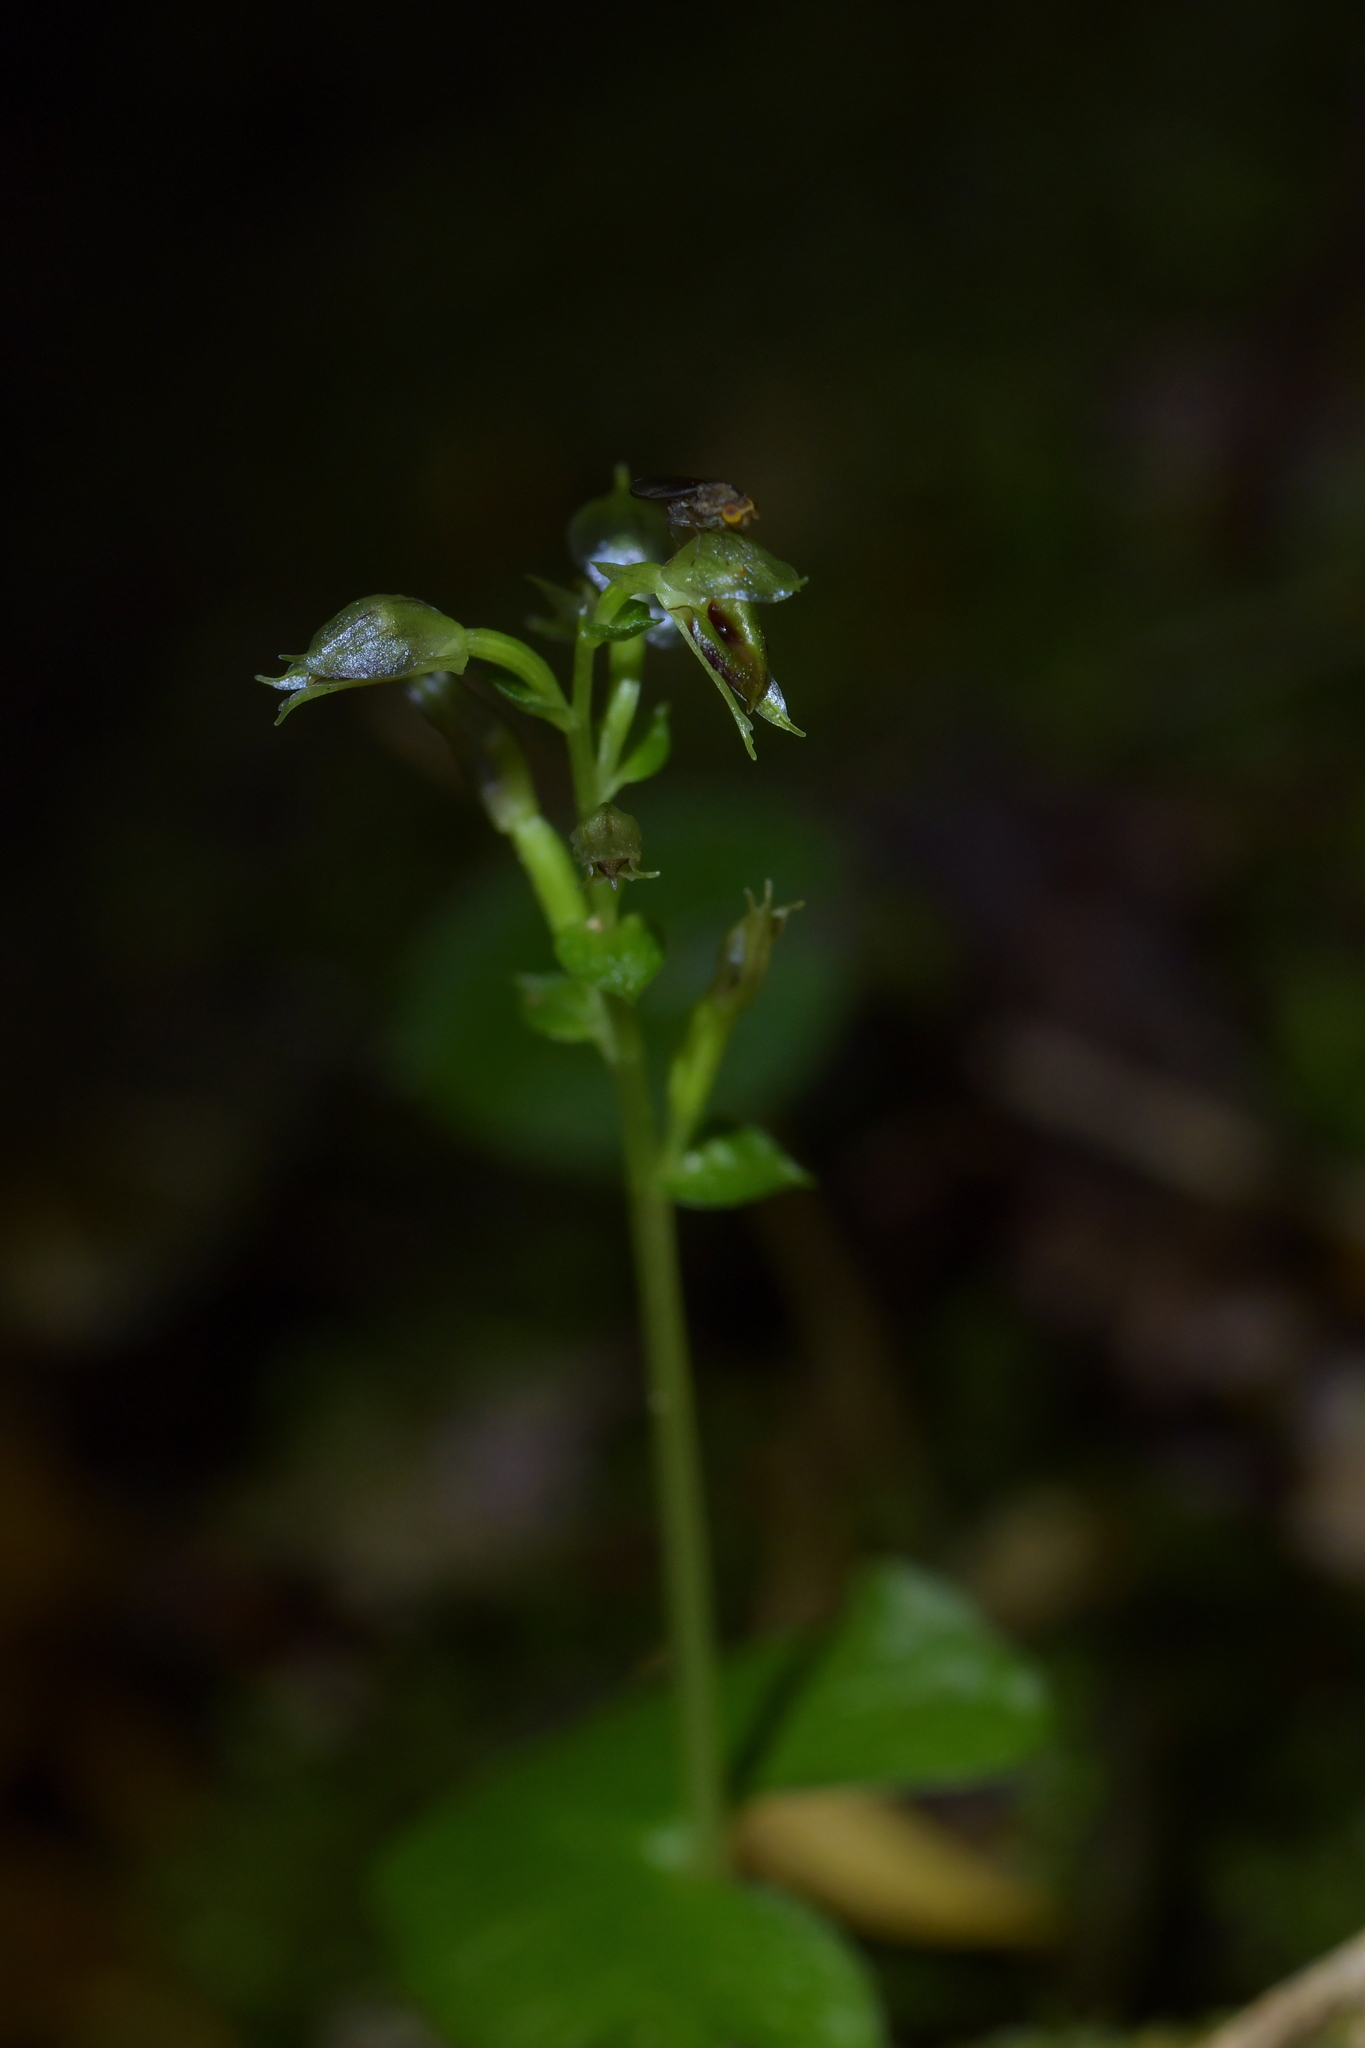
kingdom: Plantae
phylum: Tracheophyta
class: Liliopsida
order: Asparagales
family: Orchidaceae
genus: Acianthus
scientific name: Acianthus sinclairii
